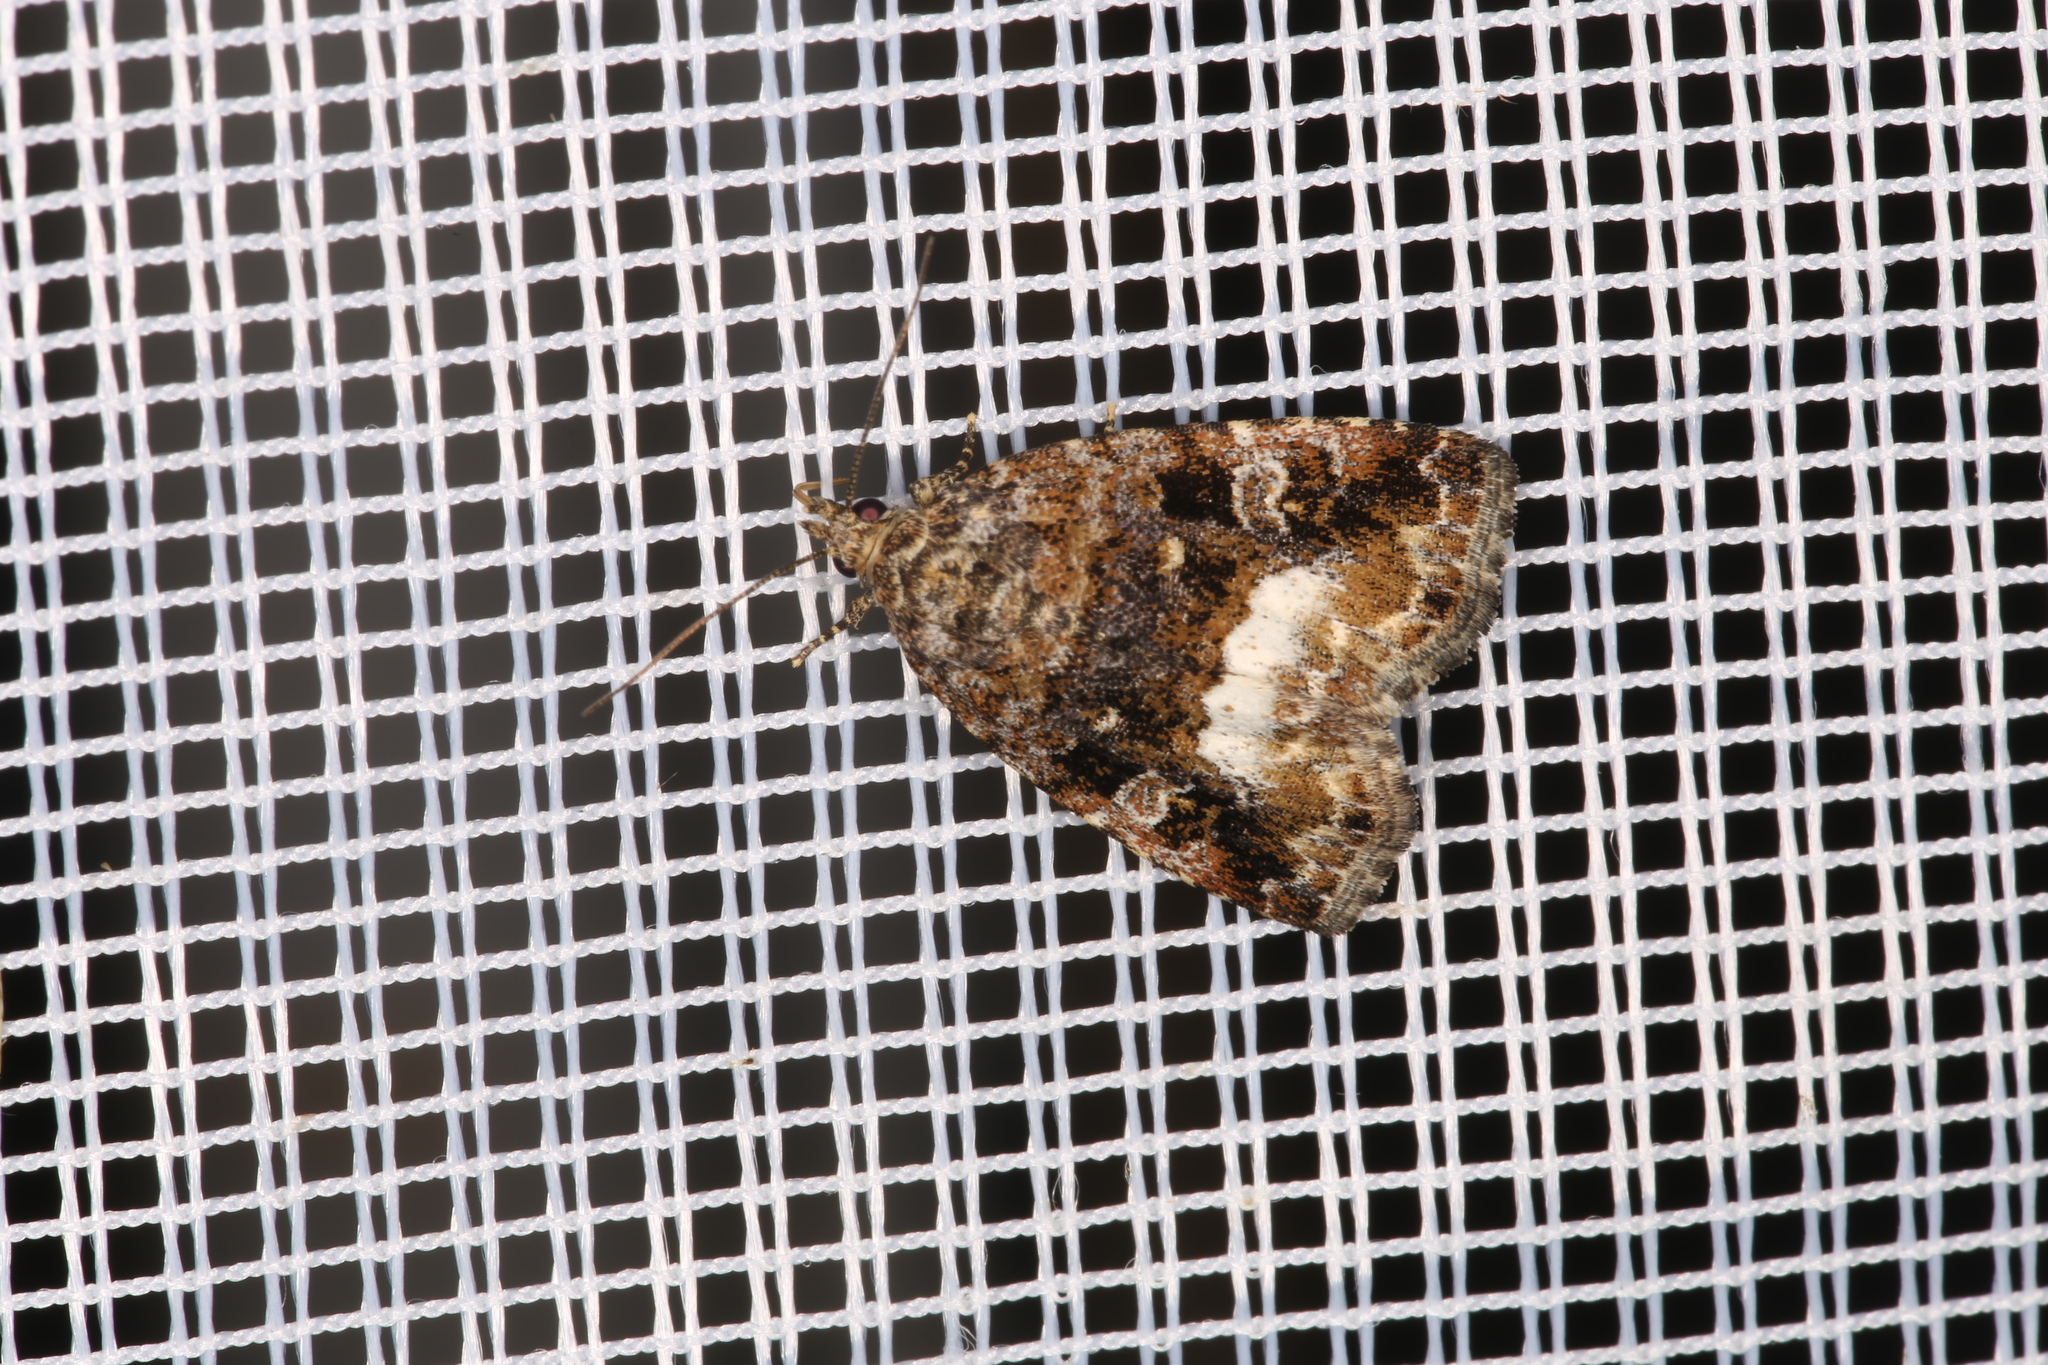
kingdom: Animalia
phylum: Arthropoda
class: Insecta
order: Lepidoptera
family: Noctuidae
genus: Deltote
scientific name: Deltote pygarga
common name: Marbled white spot
